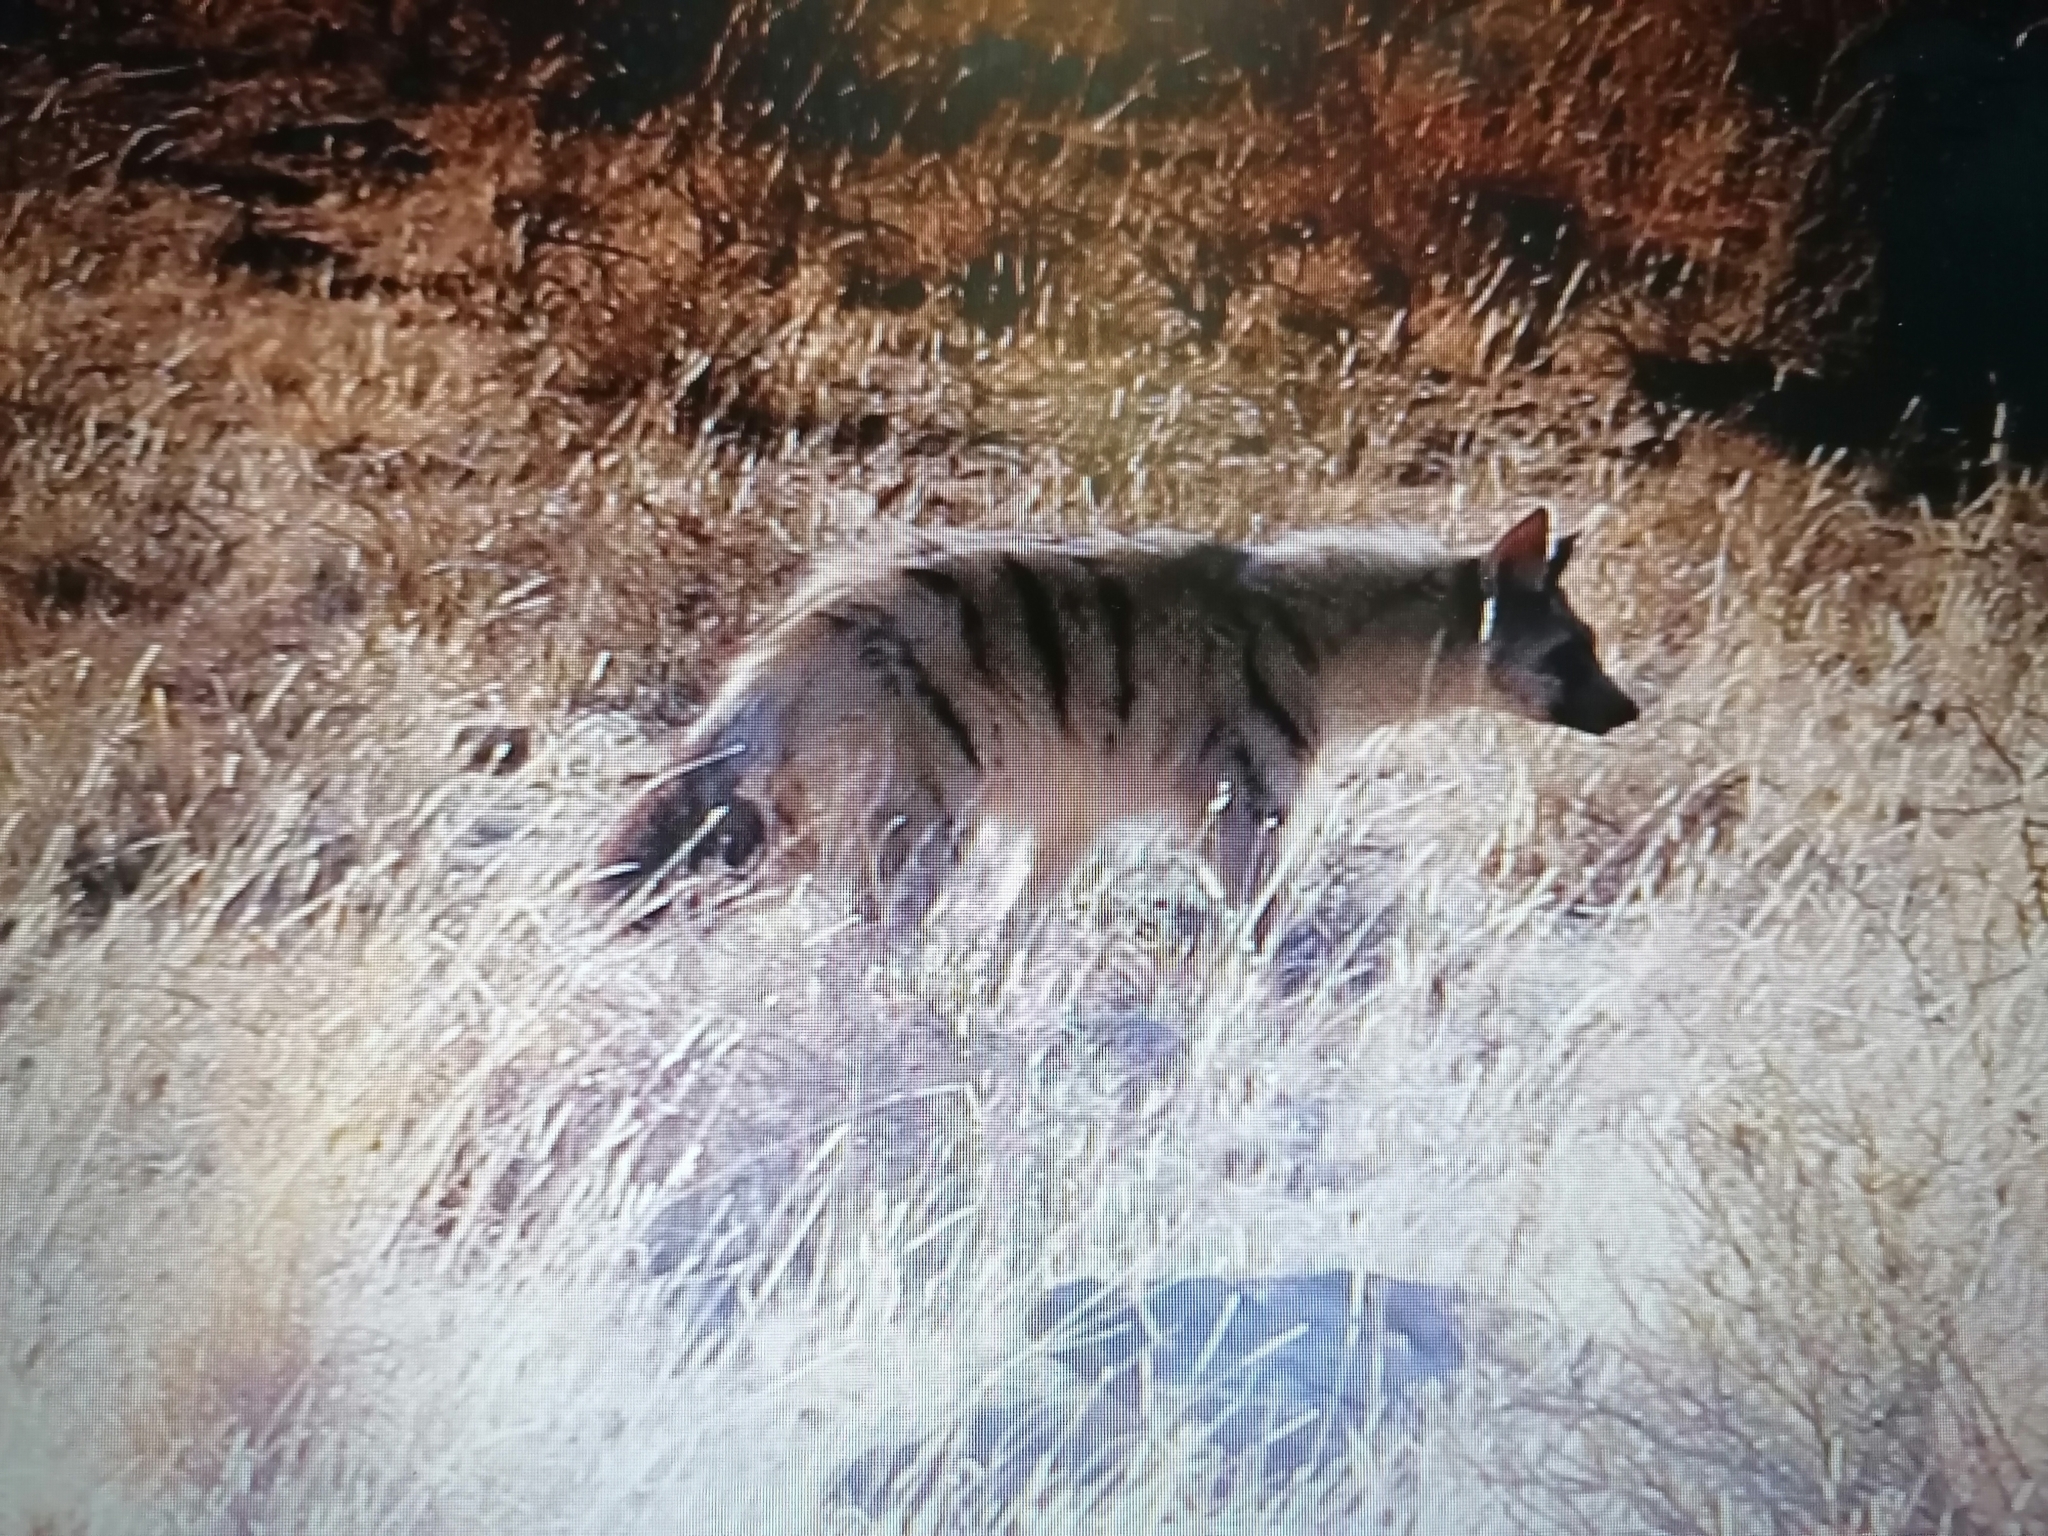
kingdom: Animalia
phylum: Chordata
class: Mammalia
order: Carnivora
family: Hyaenidae
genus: Proteles
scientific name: Proteles cristata
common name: Aardwolf
